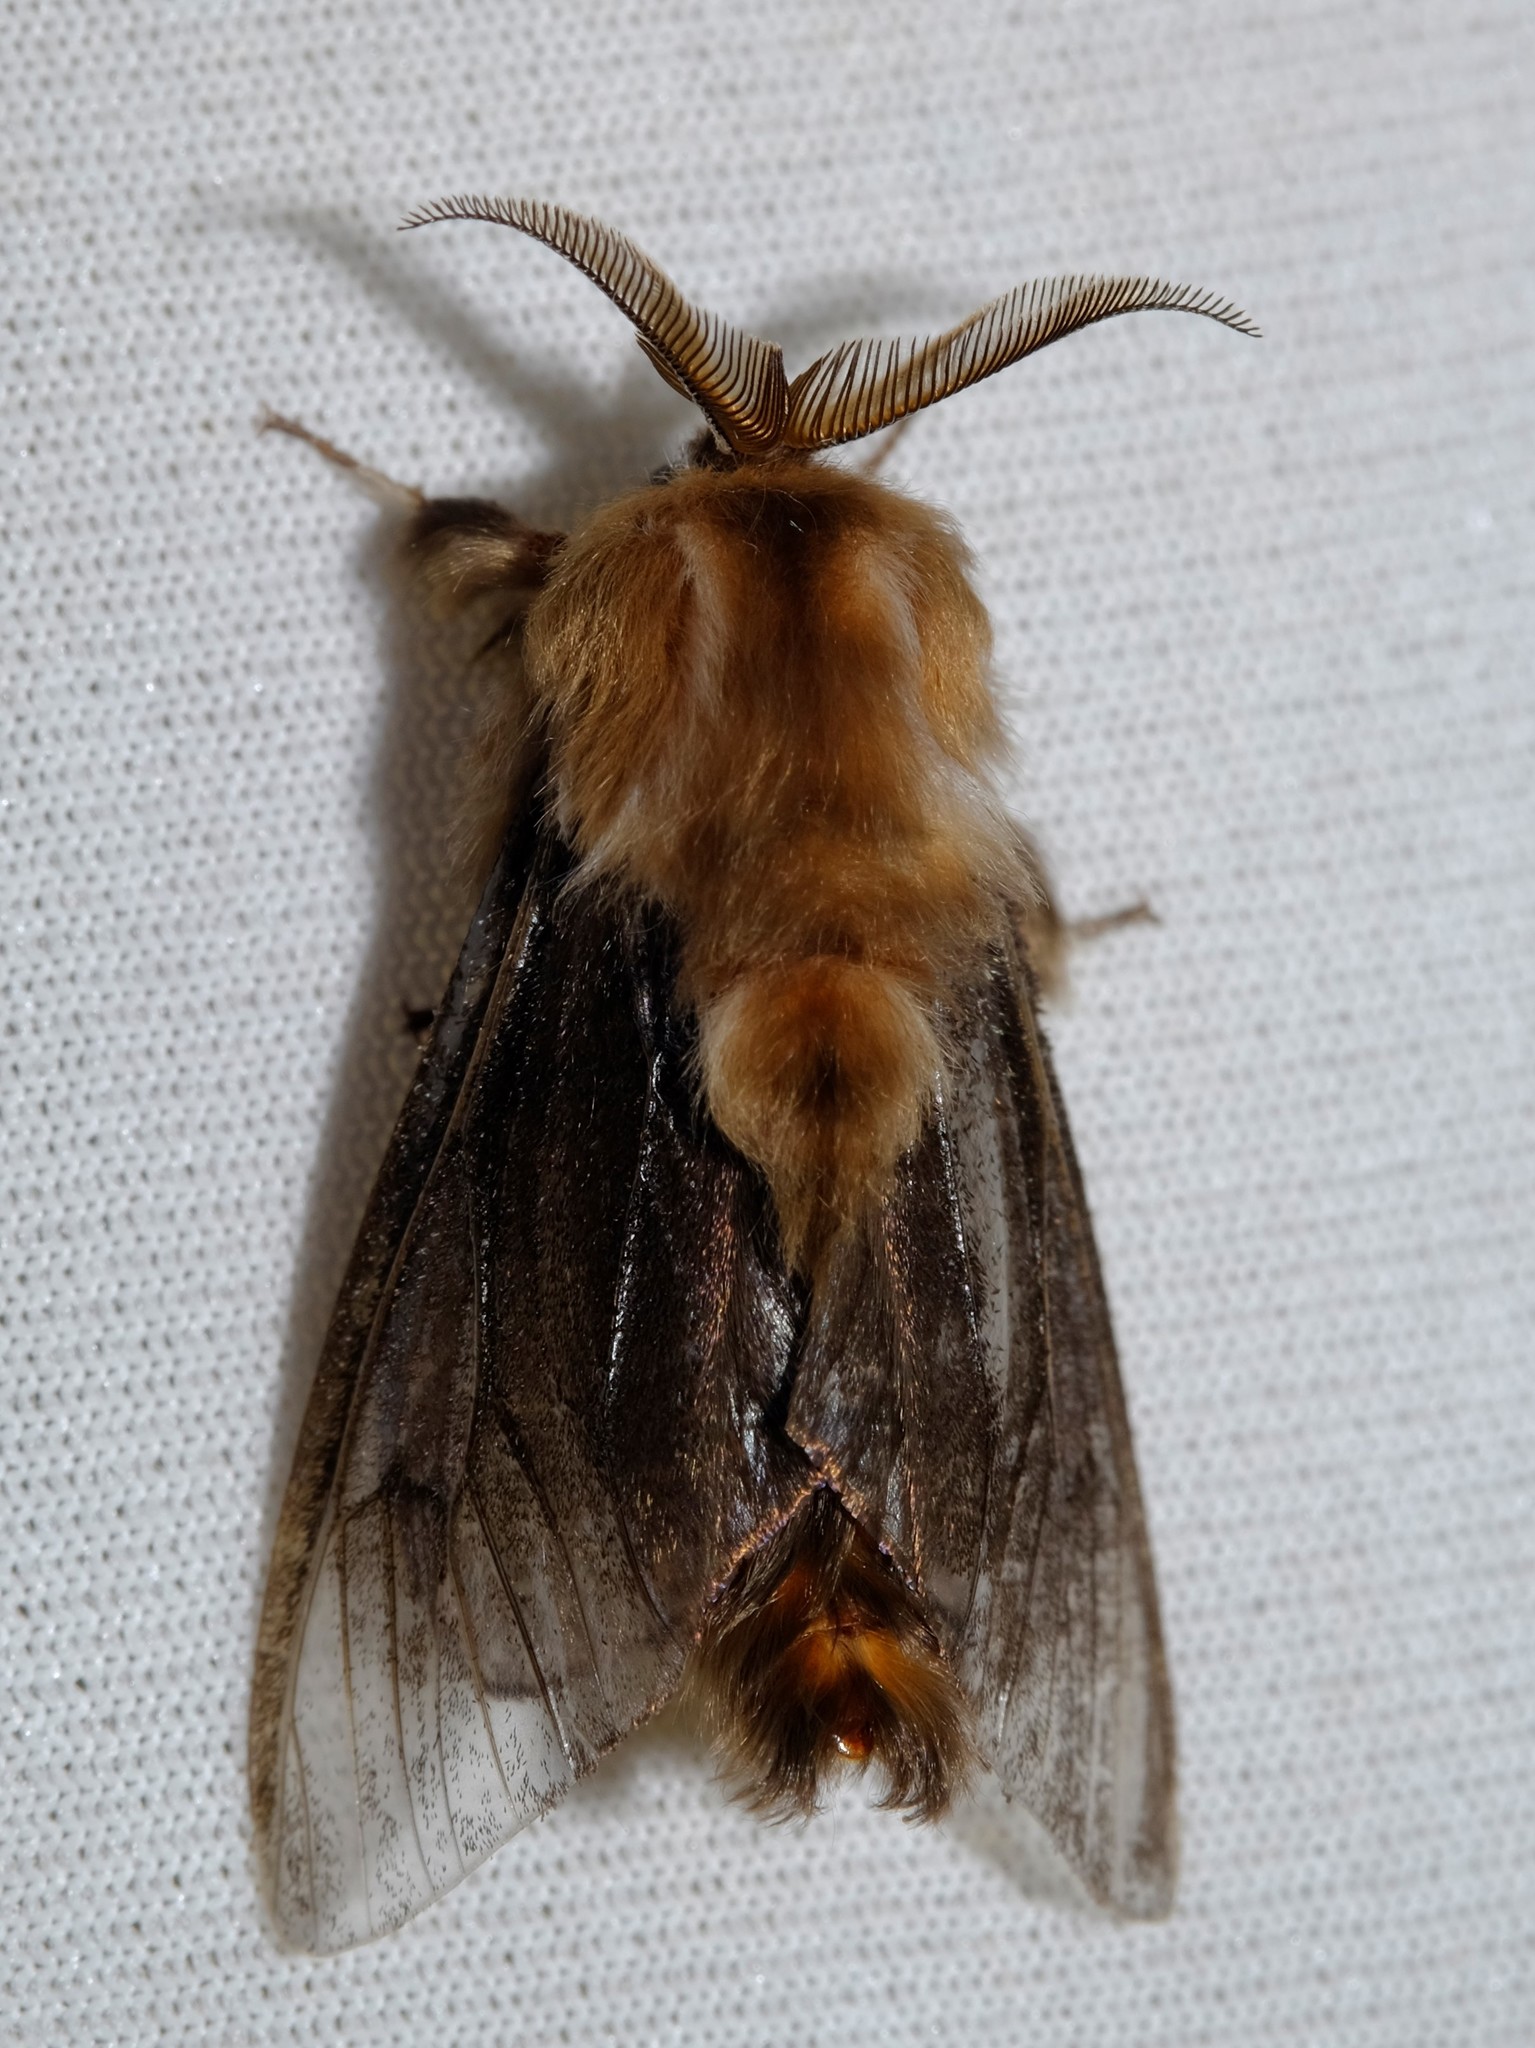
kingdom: Animalia
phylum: Arthropoda
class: Insecta
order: Lepidoptera
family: Psychidae
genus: Clania
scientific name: Clania ignobilis
